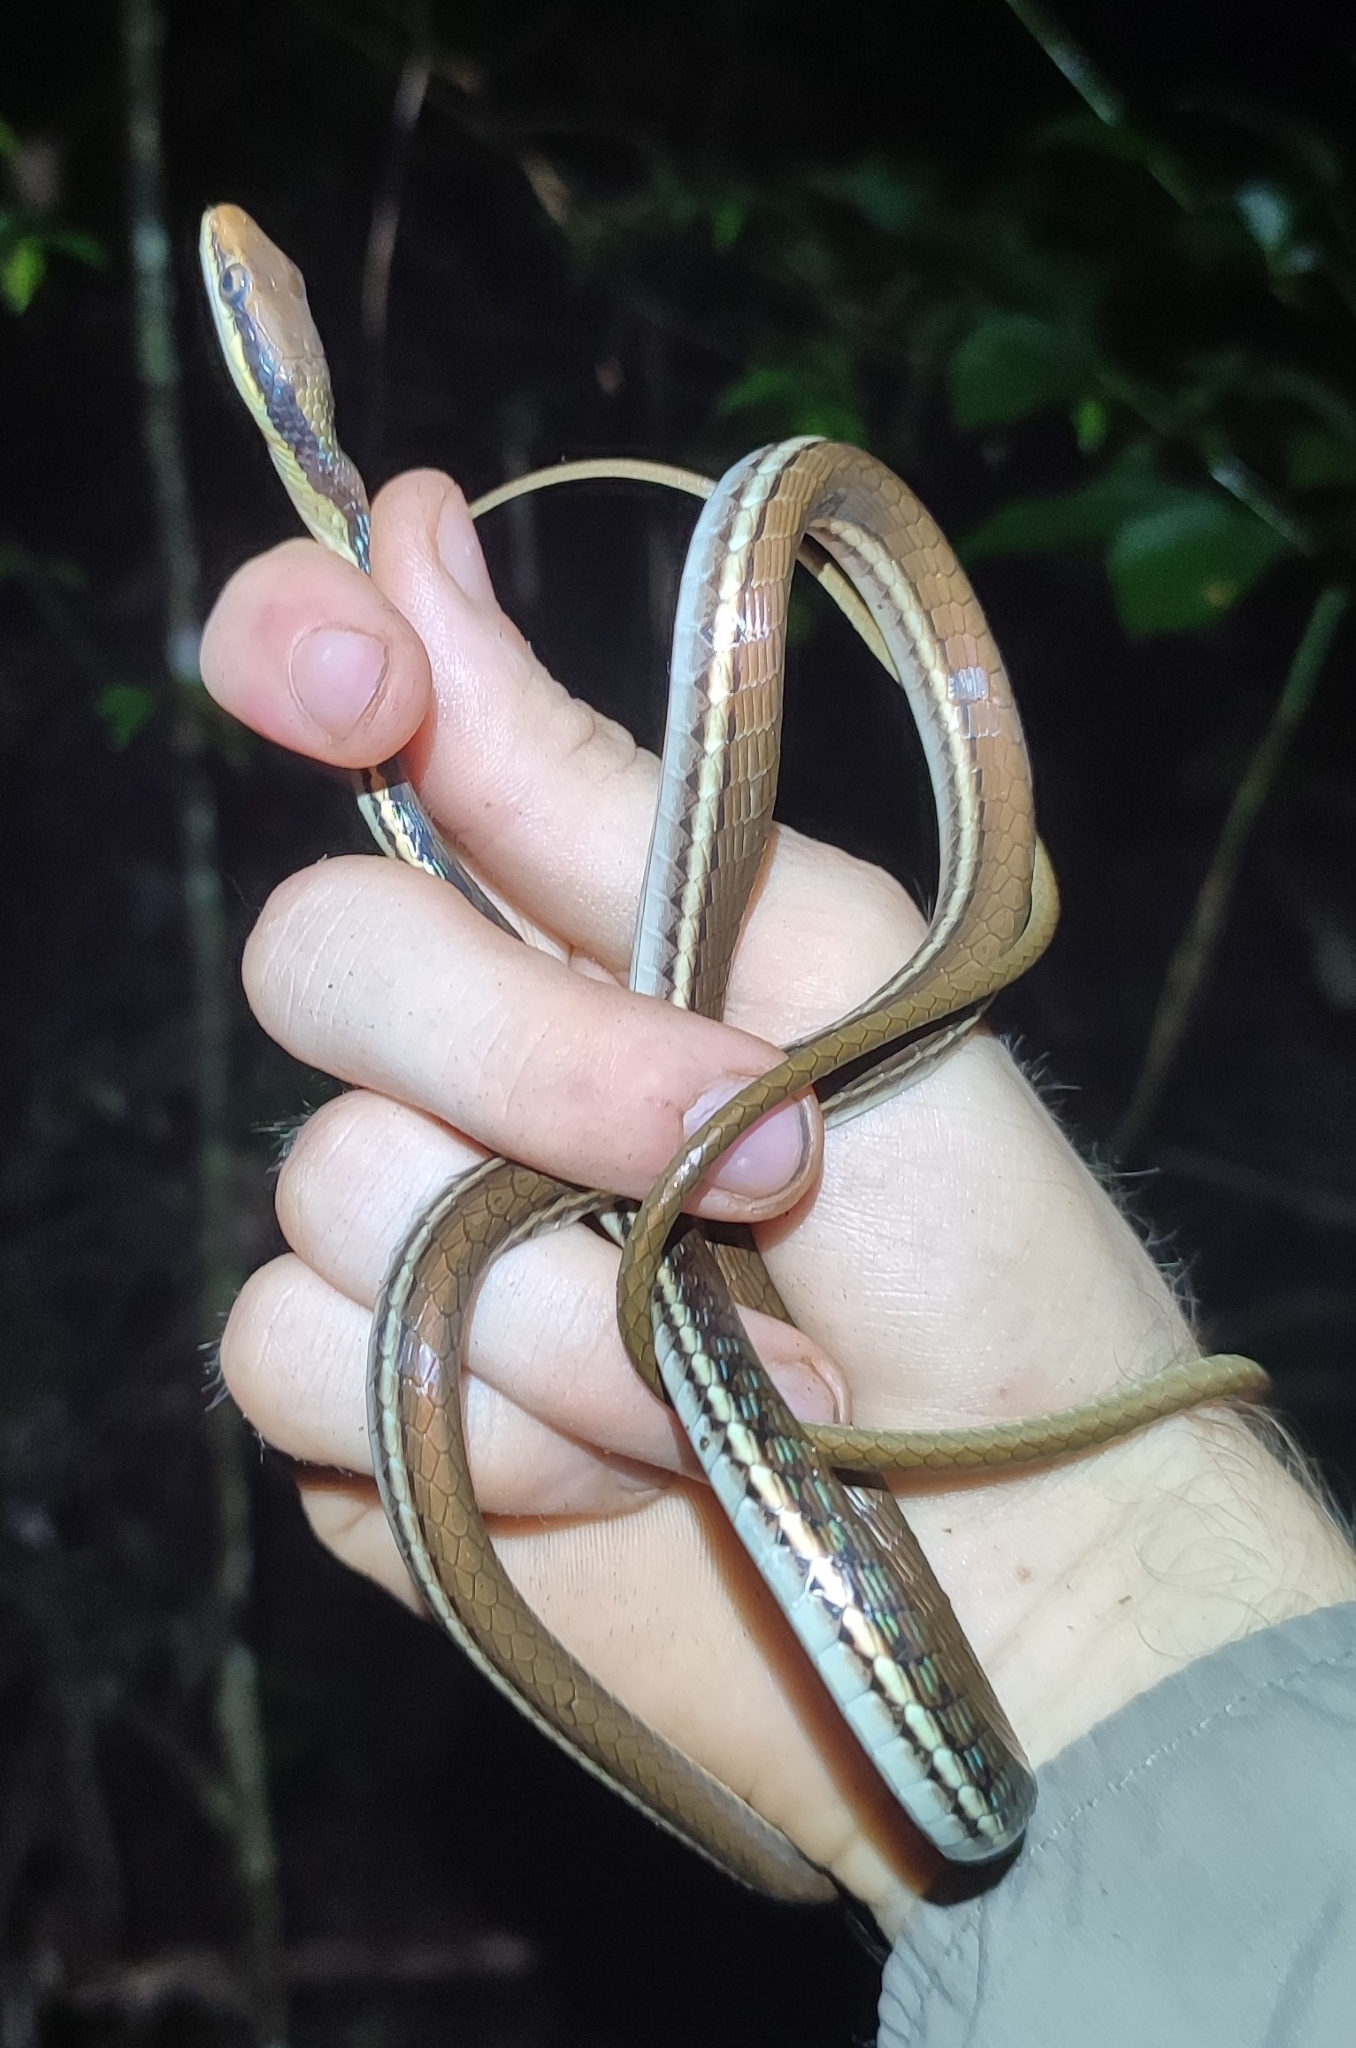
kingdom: Animalia
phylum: Chordata
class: Squamata
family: Colubridae
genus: Dendrelaphis
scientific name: Dendrelaphis pictus
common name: Indonesian bronze-back
